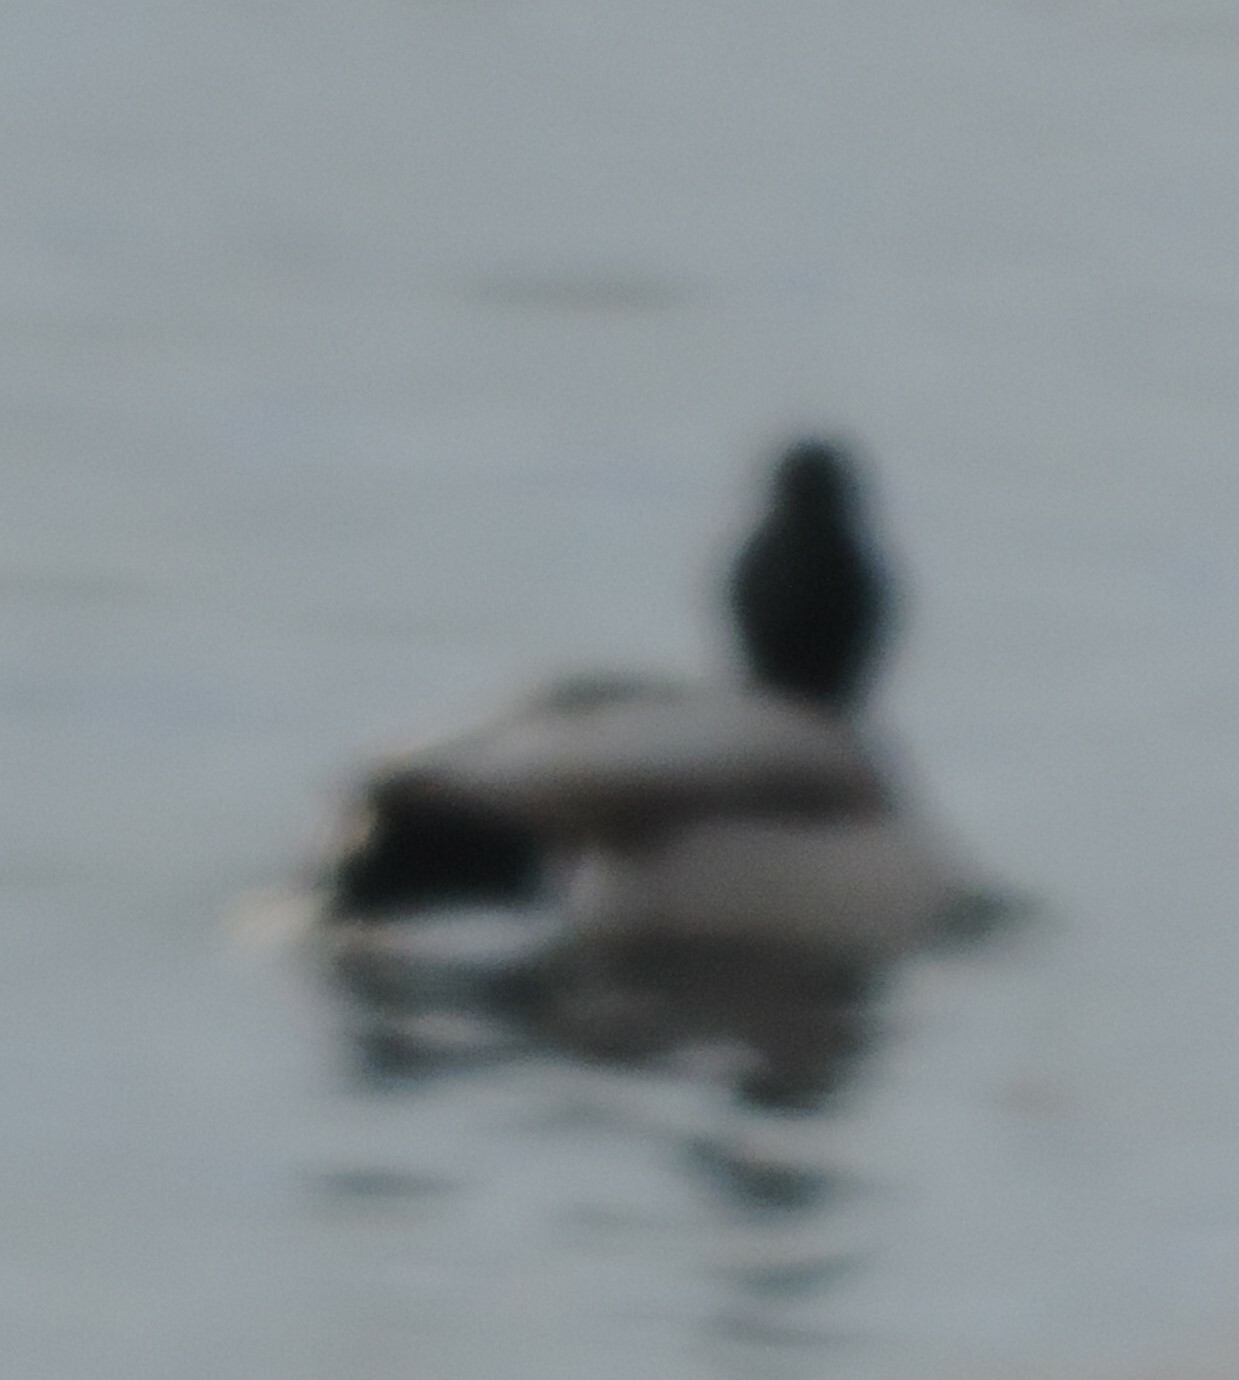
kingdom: Animalia
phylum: Chordata
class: Aves
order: Anseriformes
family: Anatidae
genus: Anas
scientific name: Anas platyrhynchos
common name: Mallard
